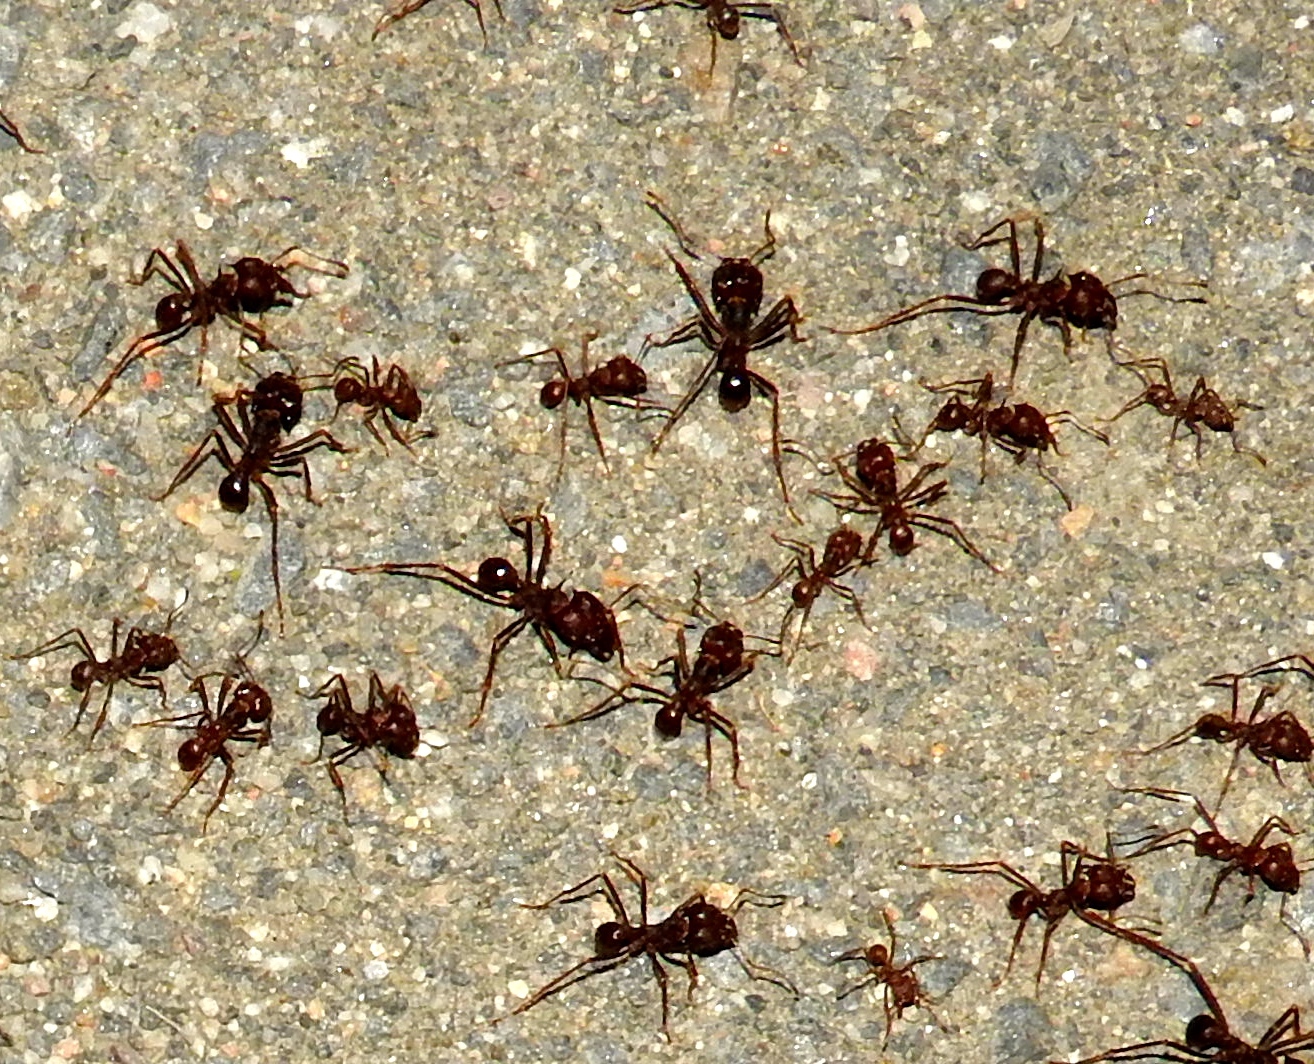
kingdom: Animalia
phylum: Arthropoda
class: Insecta
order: Hymenoptera
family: Formicidae
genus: Atta
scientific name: Atta mexicana
